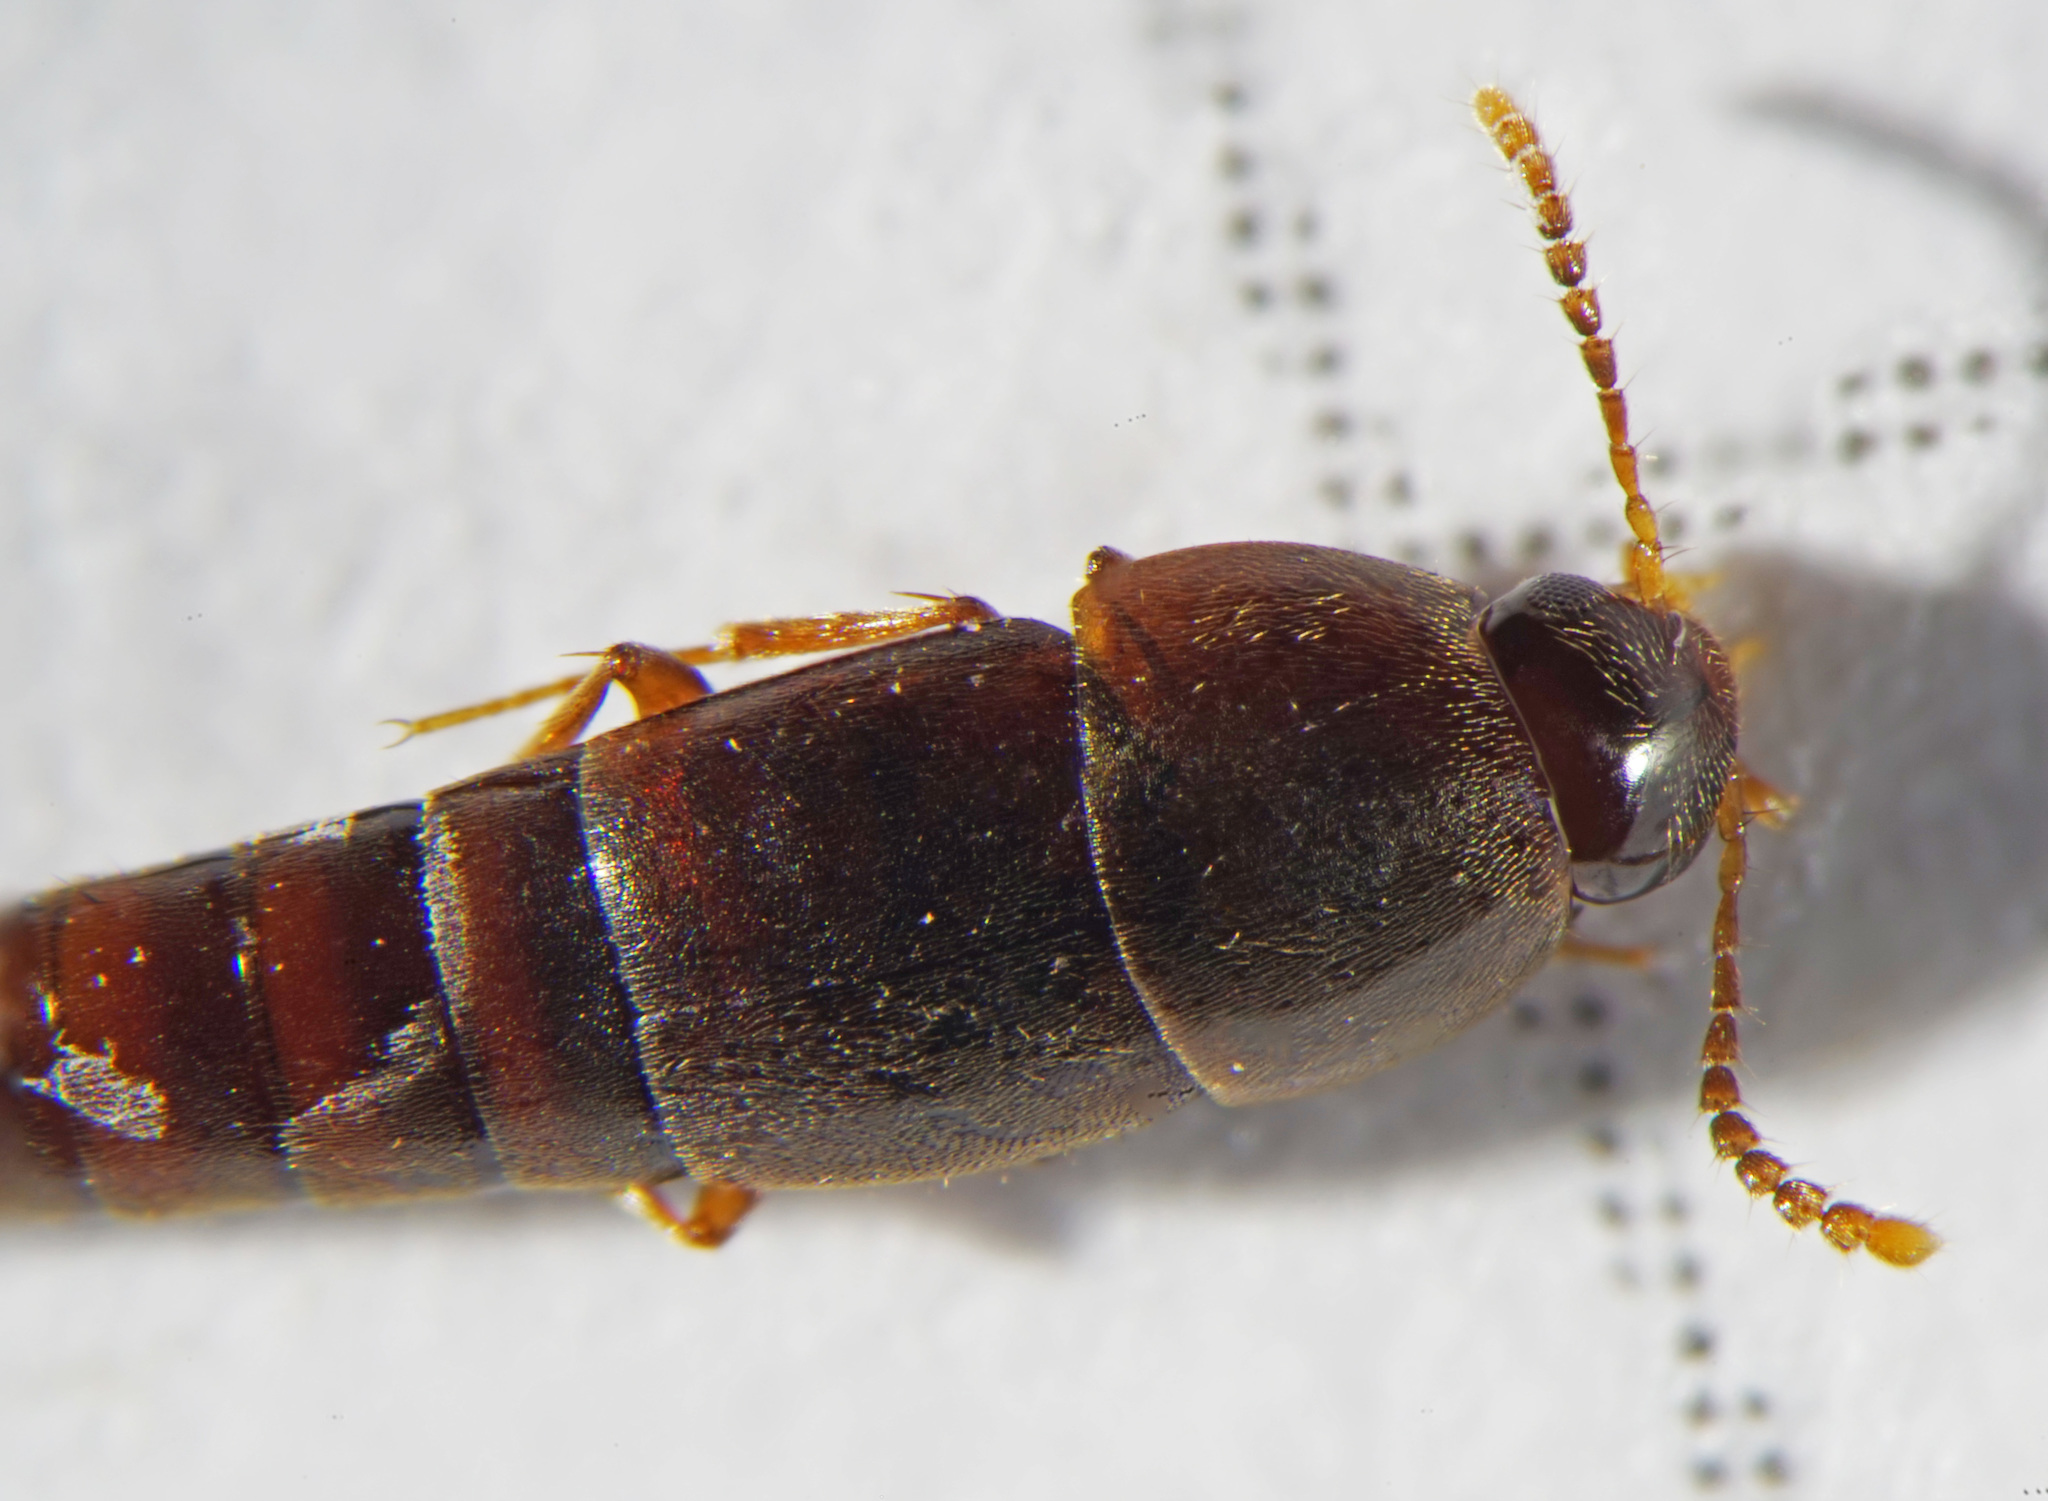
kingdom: Animalia
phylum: Arthropoda
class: Insecta
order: Coleoptera
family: Staphylinidae
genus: Sepedophilus
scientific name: Sepedophilus testaceus
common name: Staph beetle
